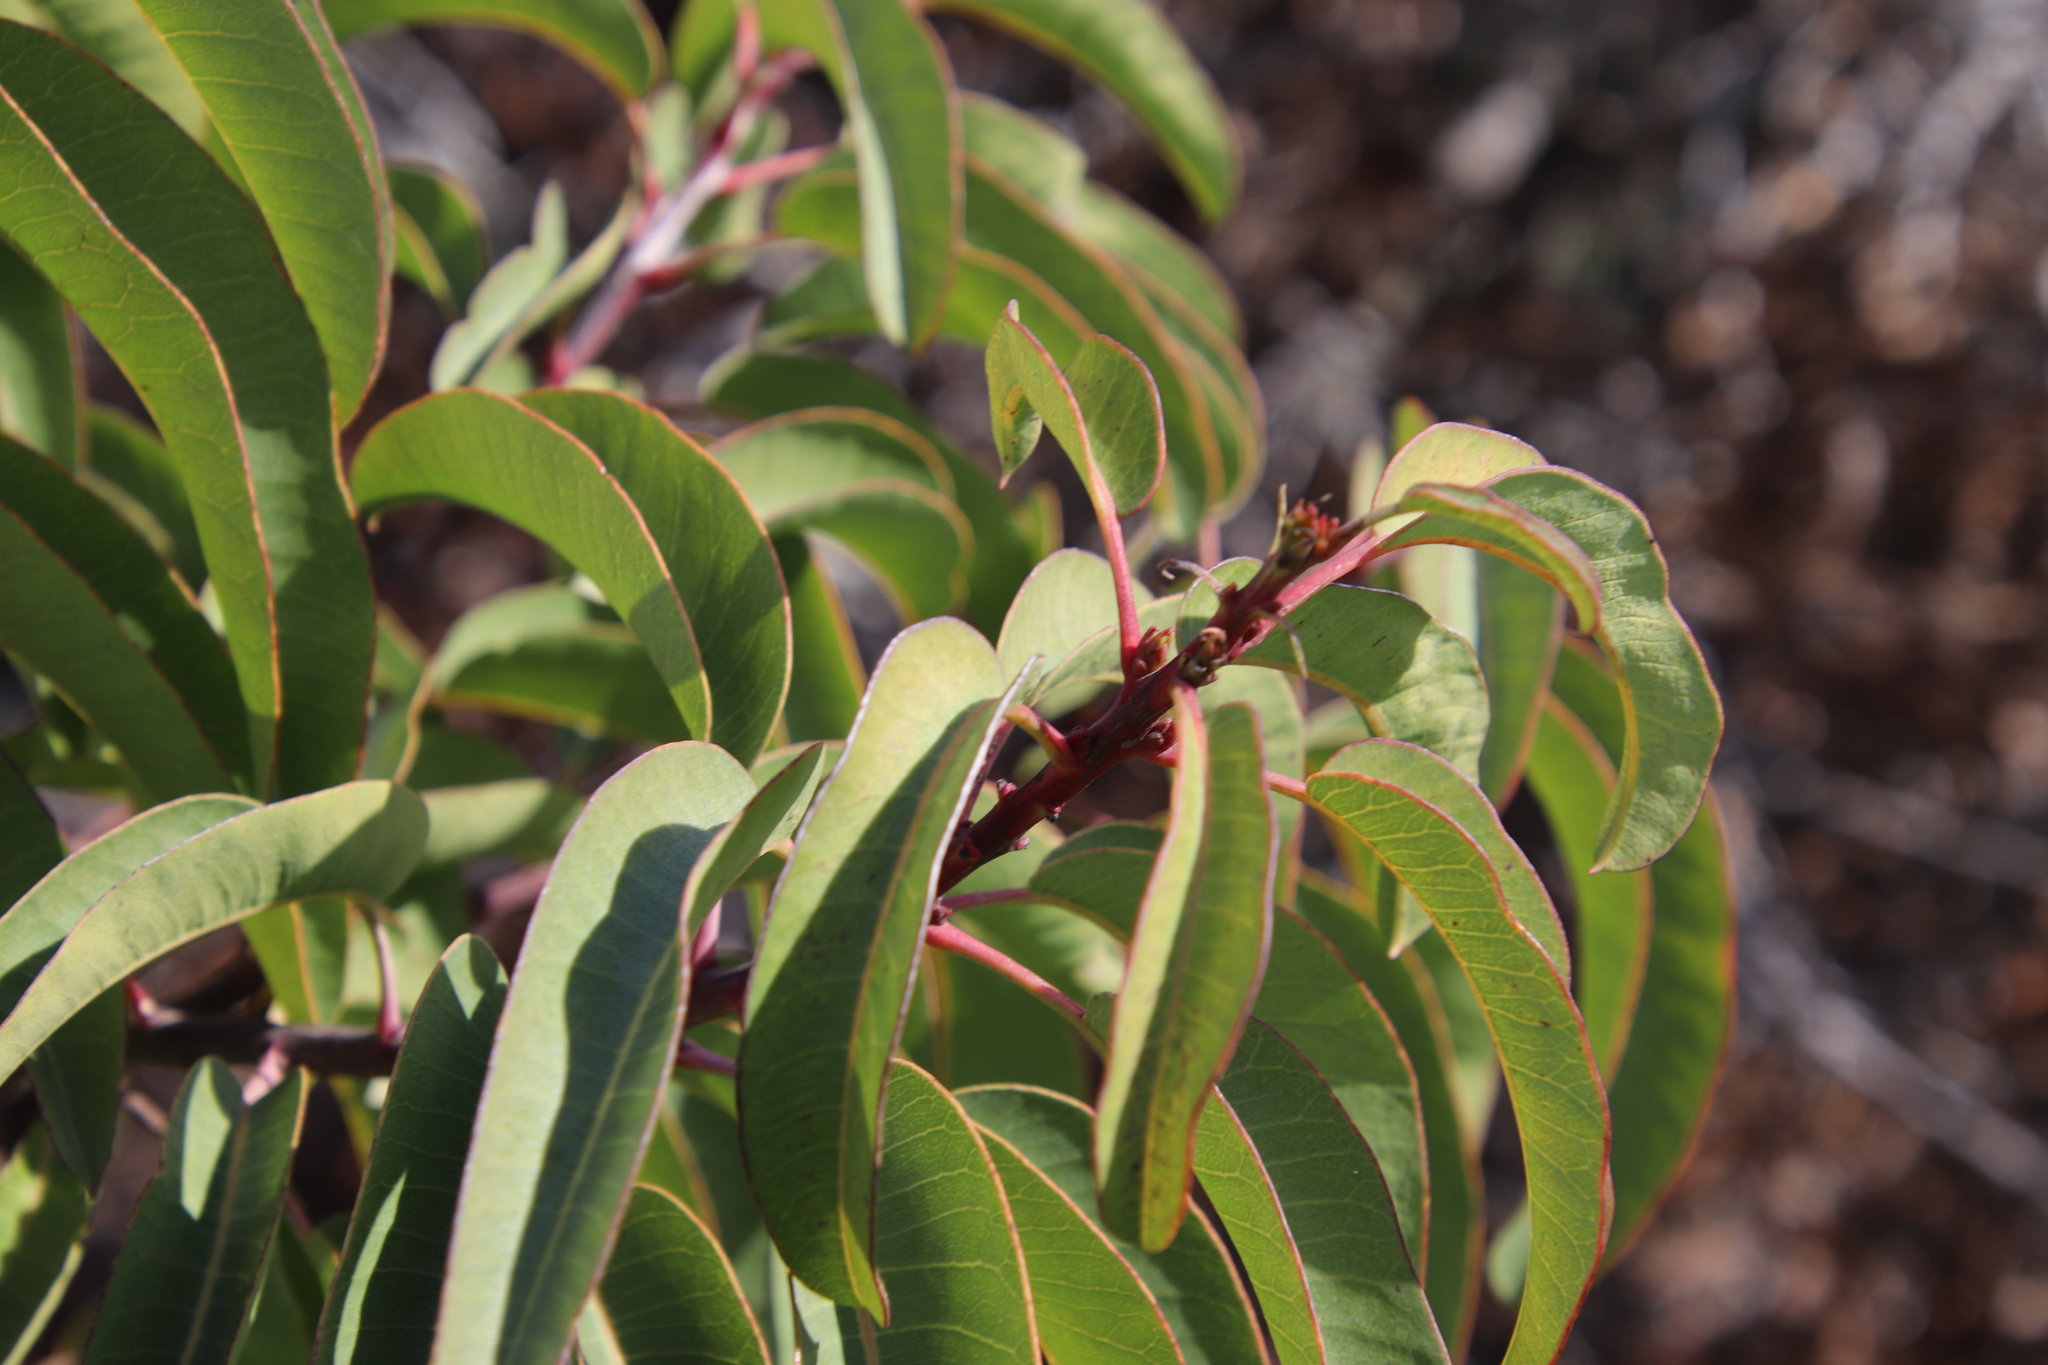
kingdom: Plantae
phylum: Tracheophyta
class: Magnoliopsida
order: Sapindales
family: Anacardiaceae
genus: Malosma
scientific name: Malosma laurina
